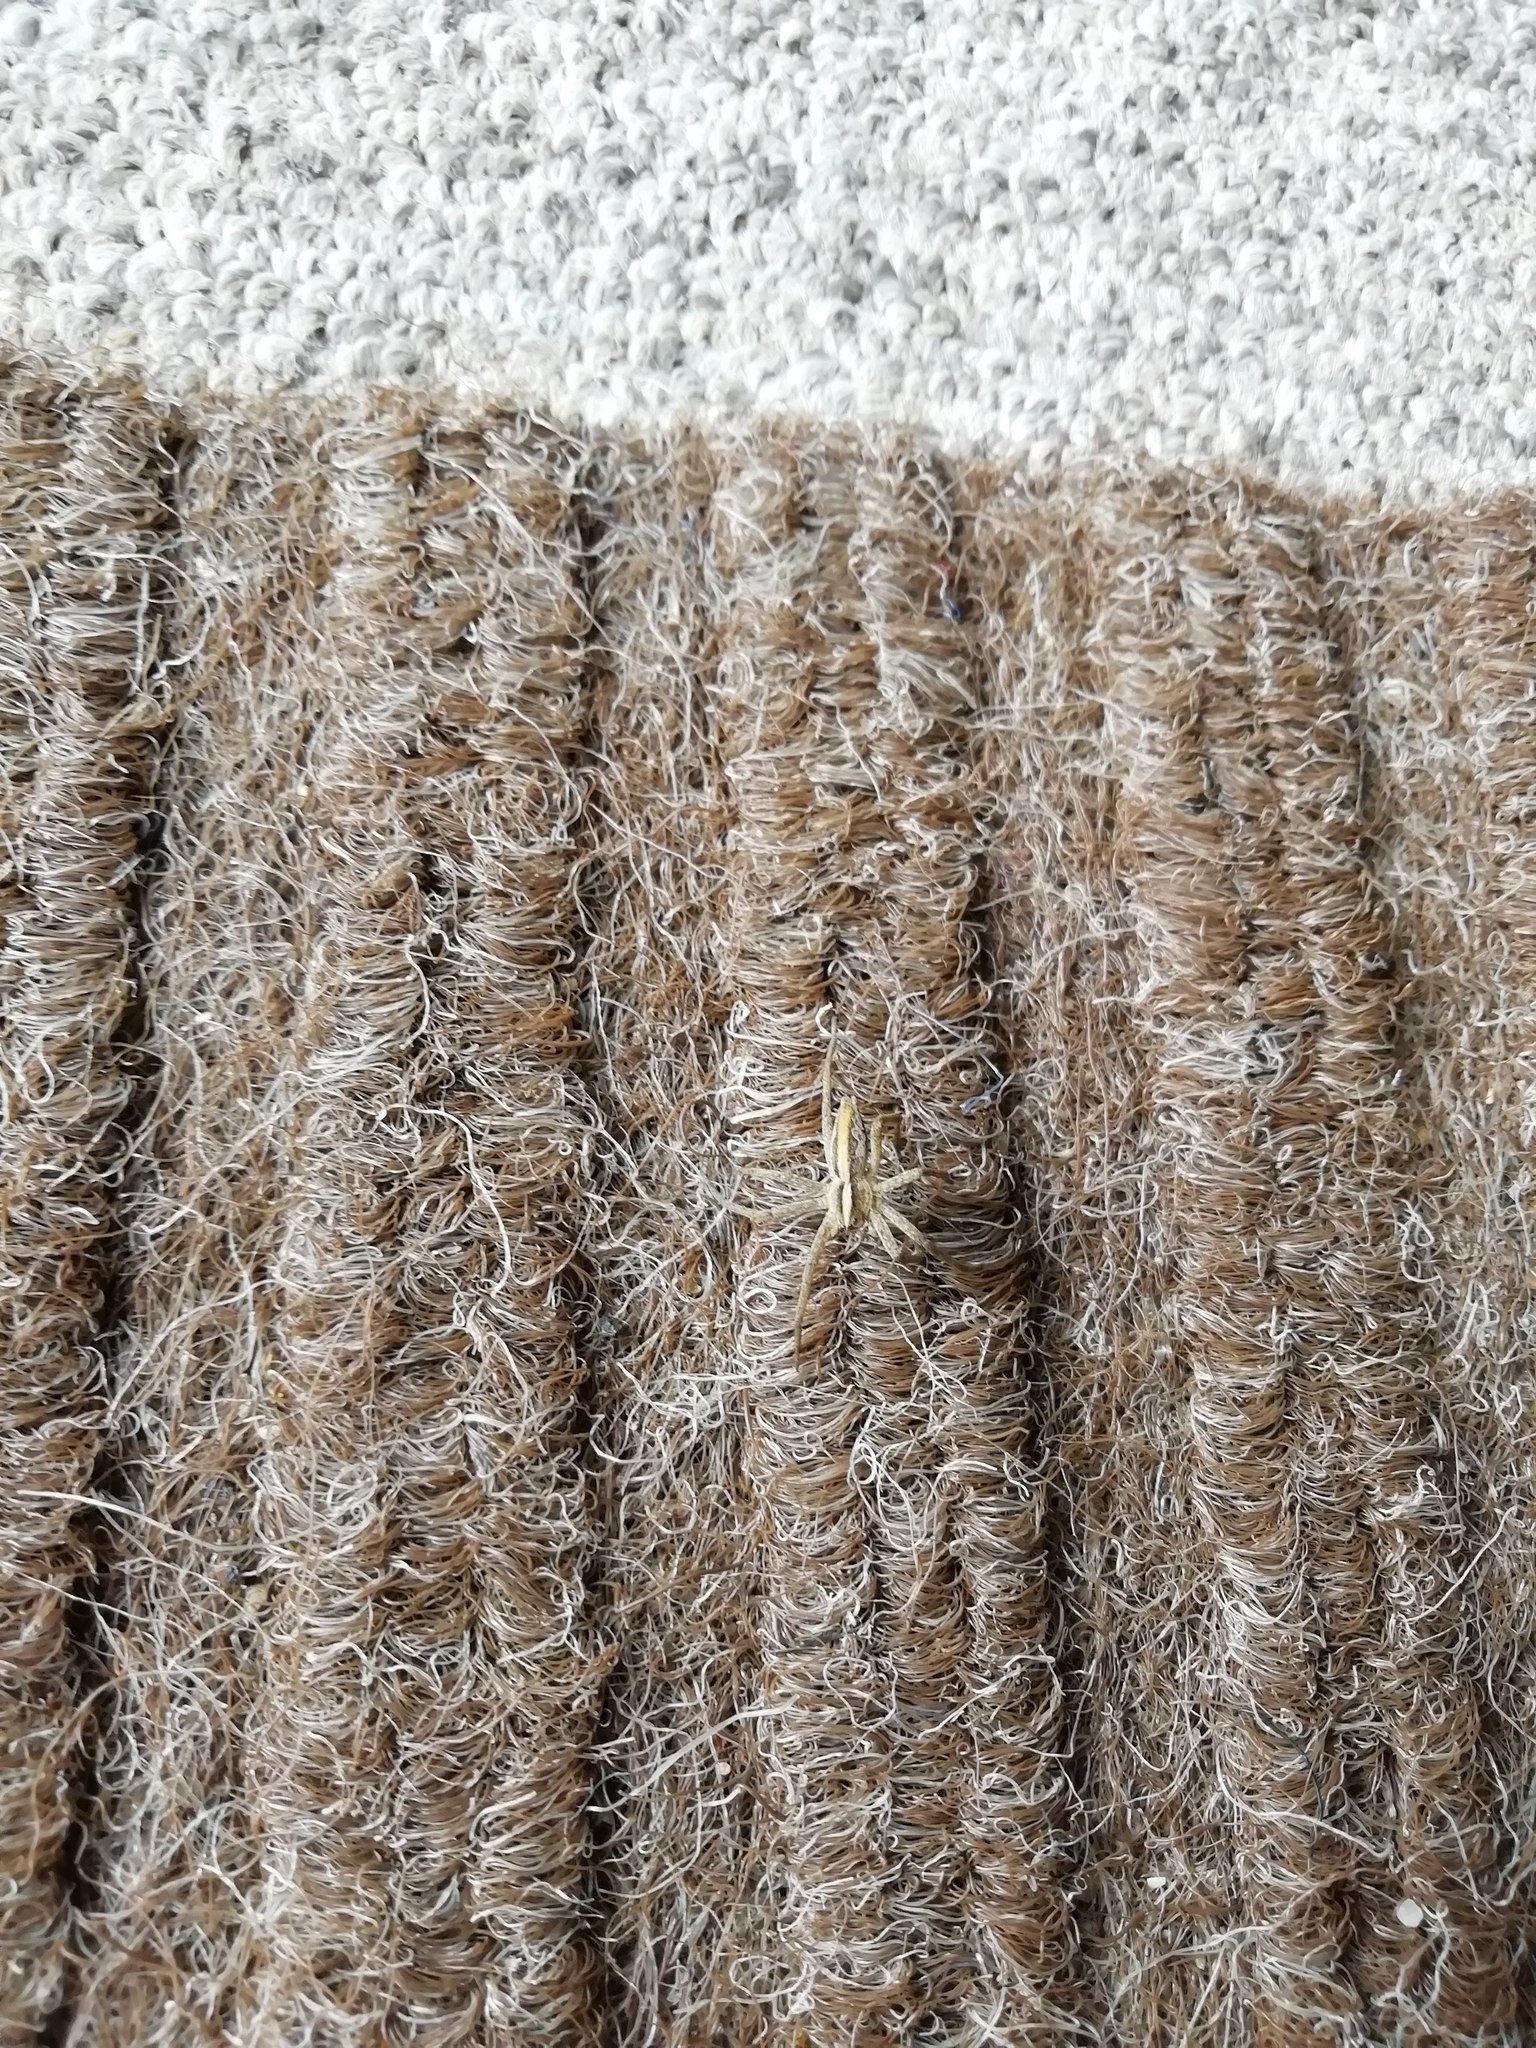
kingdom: Animalia
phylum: Arthropoda
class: Arachnida
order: Araneae
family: Pisauridae
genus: Pisaura
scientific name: Pisaura mirabilis
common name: Tent spider
